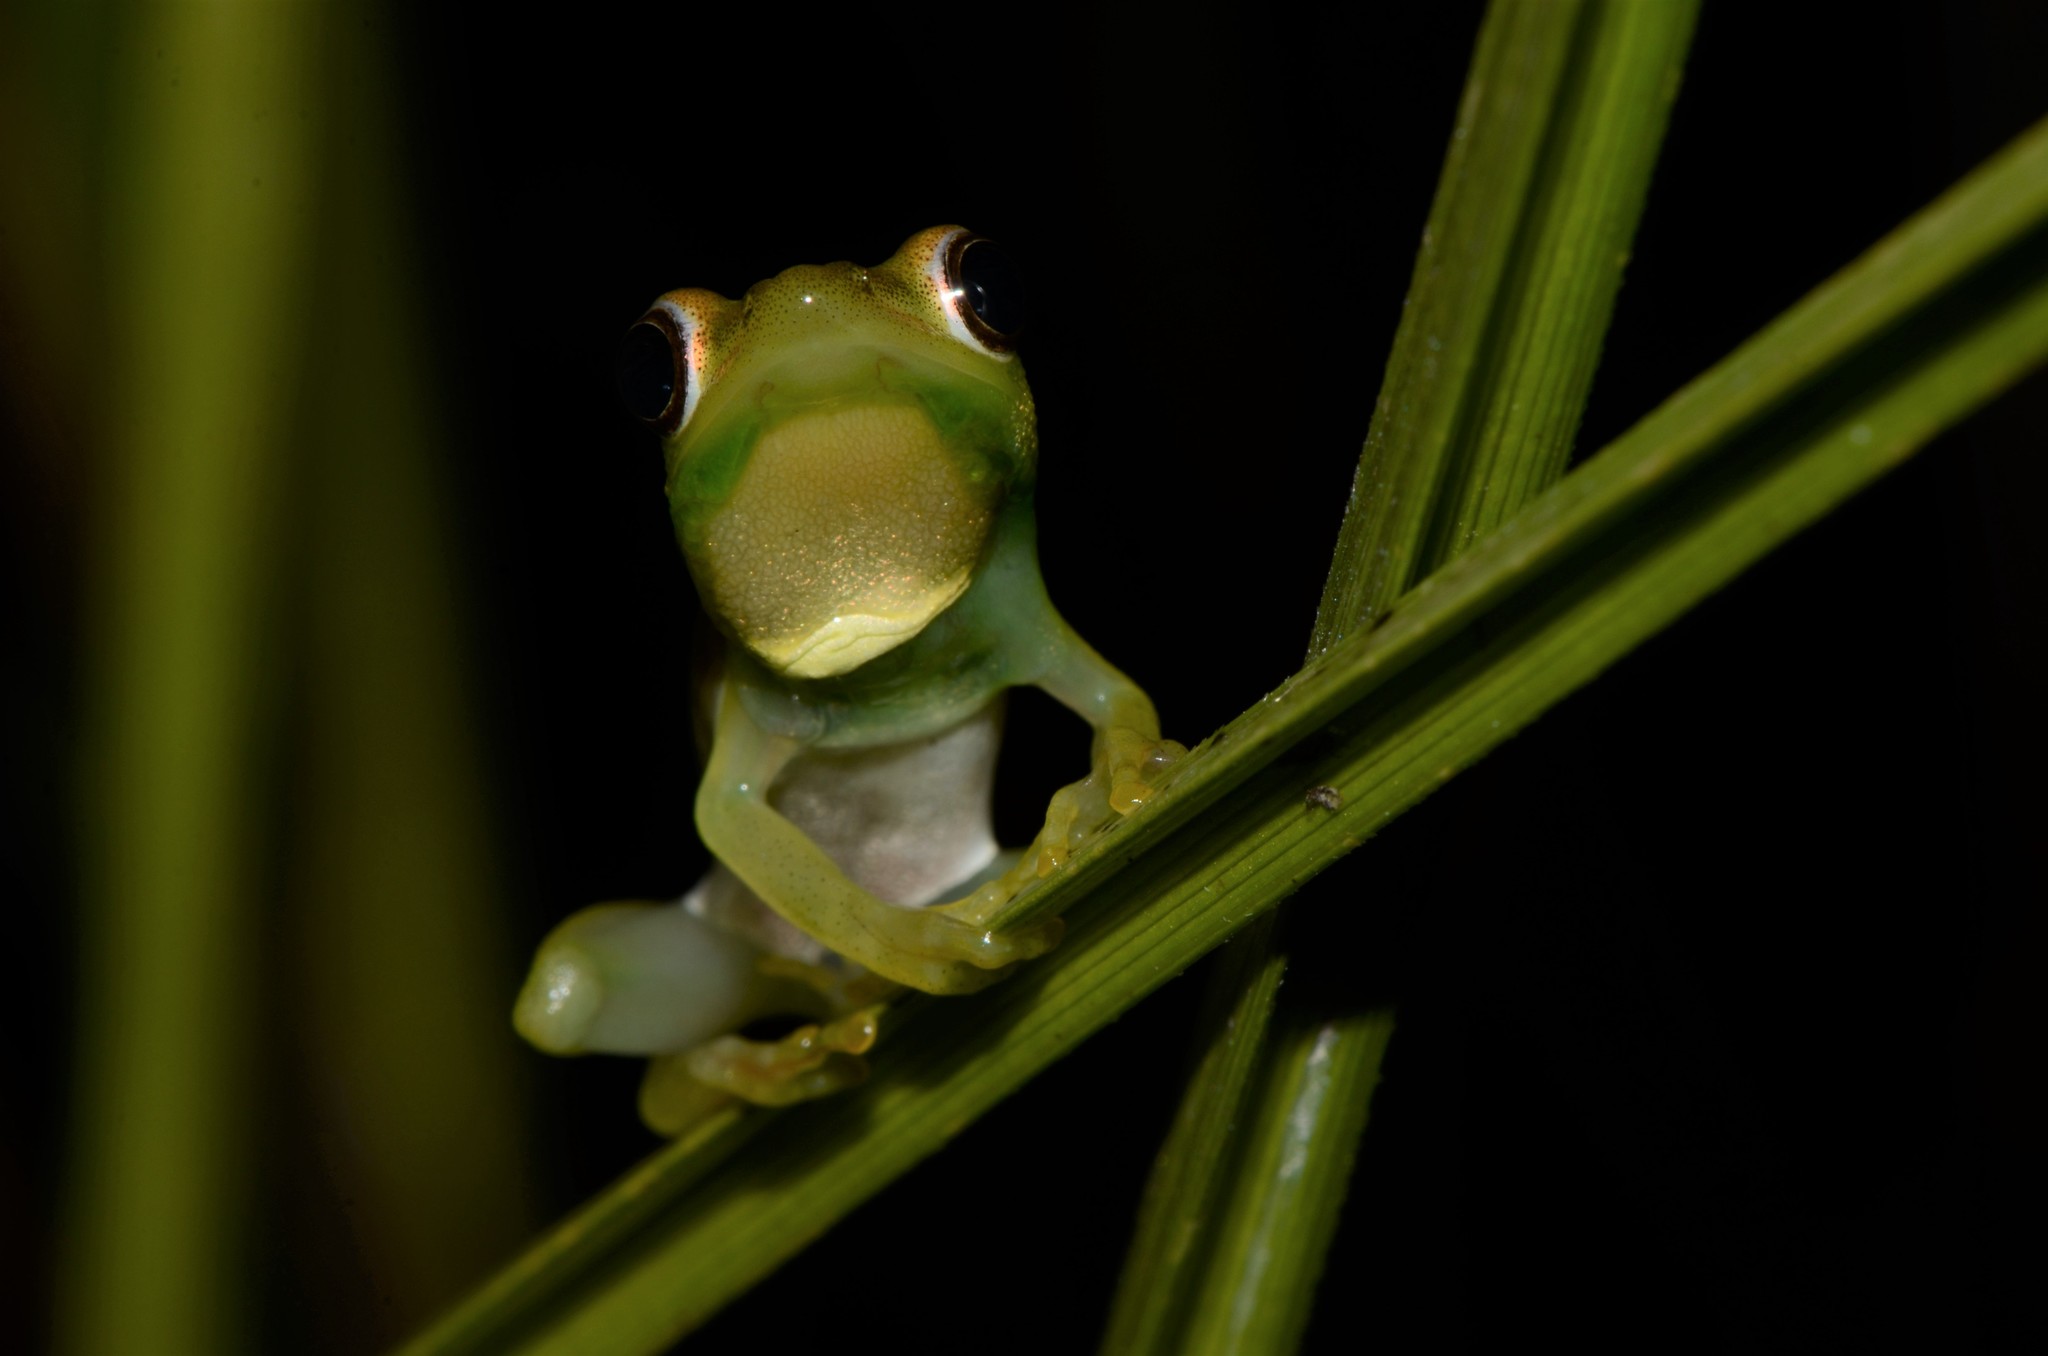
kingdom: Animalia
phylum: Chordata
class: Amphibia
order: Anura
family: Hyperoliidae
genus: Hyperolius
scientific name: Hyperolius microps
